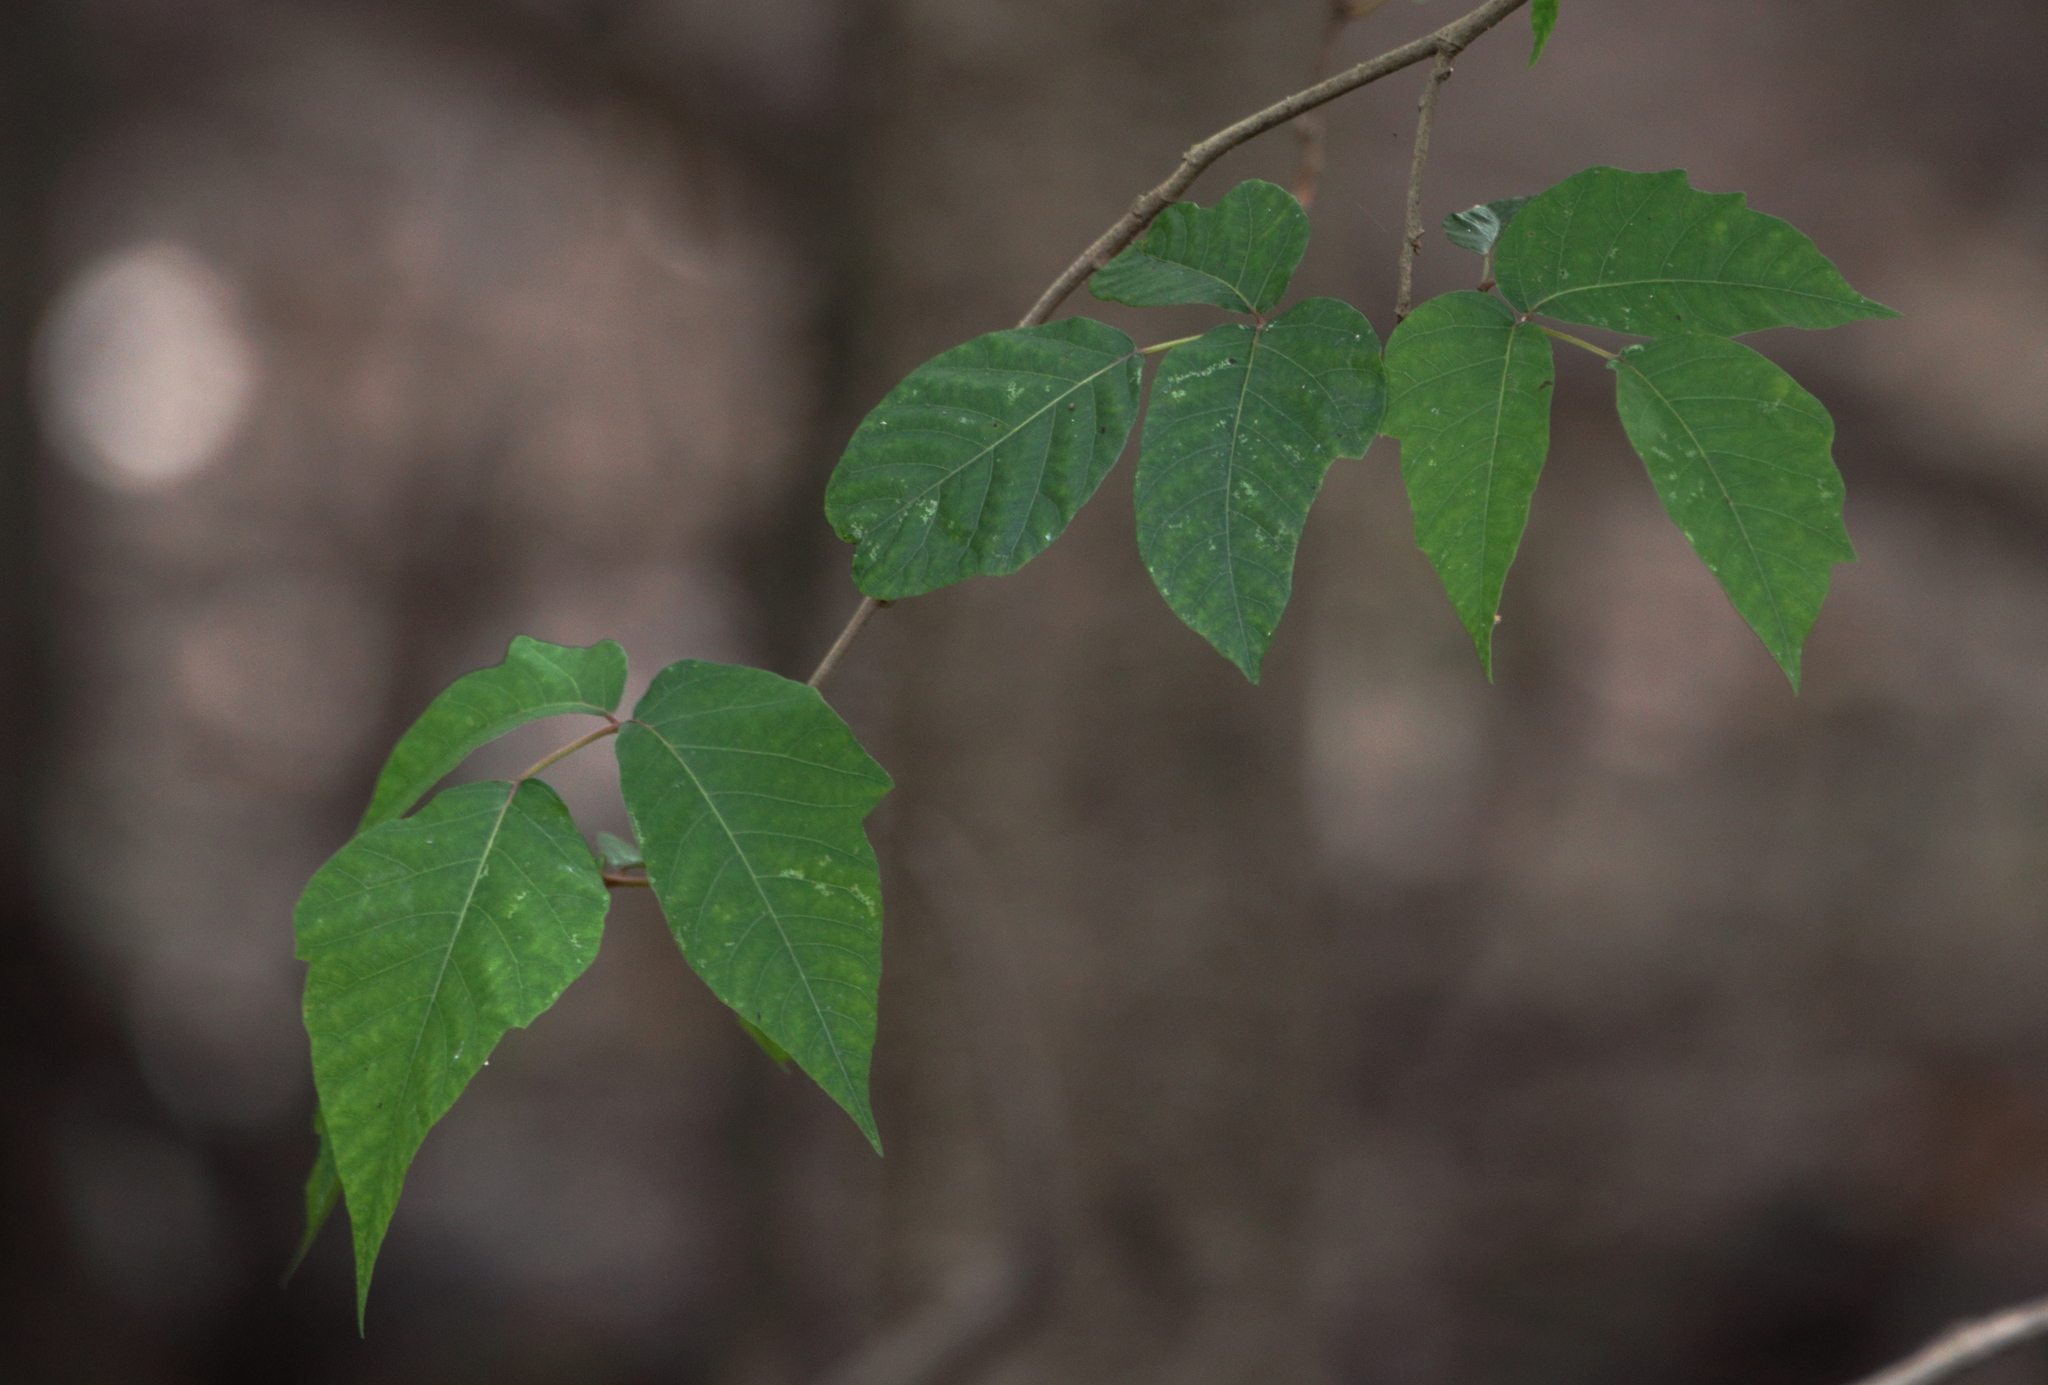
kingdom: Plantae
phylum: Tracheophyta
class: Magnoliopsida
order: Sapindales
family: Anacardiaceae
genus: Toxicodendron
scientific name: Toxicodendron radicans
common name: Poison ivy
